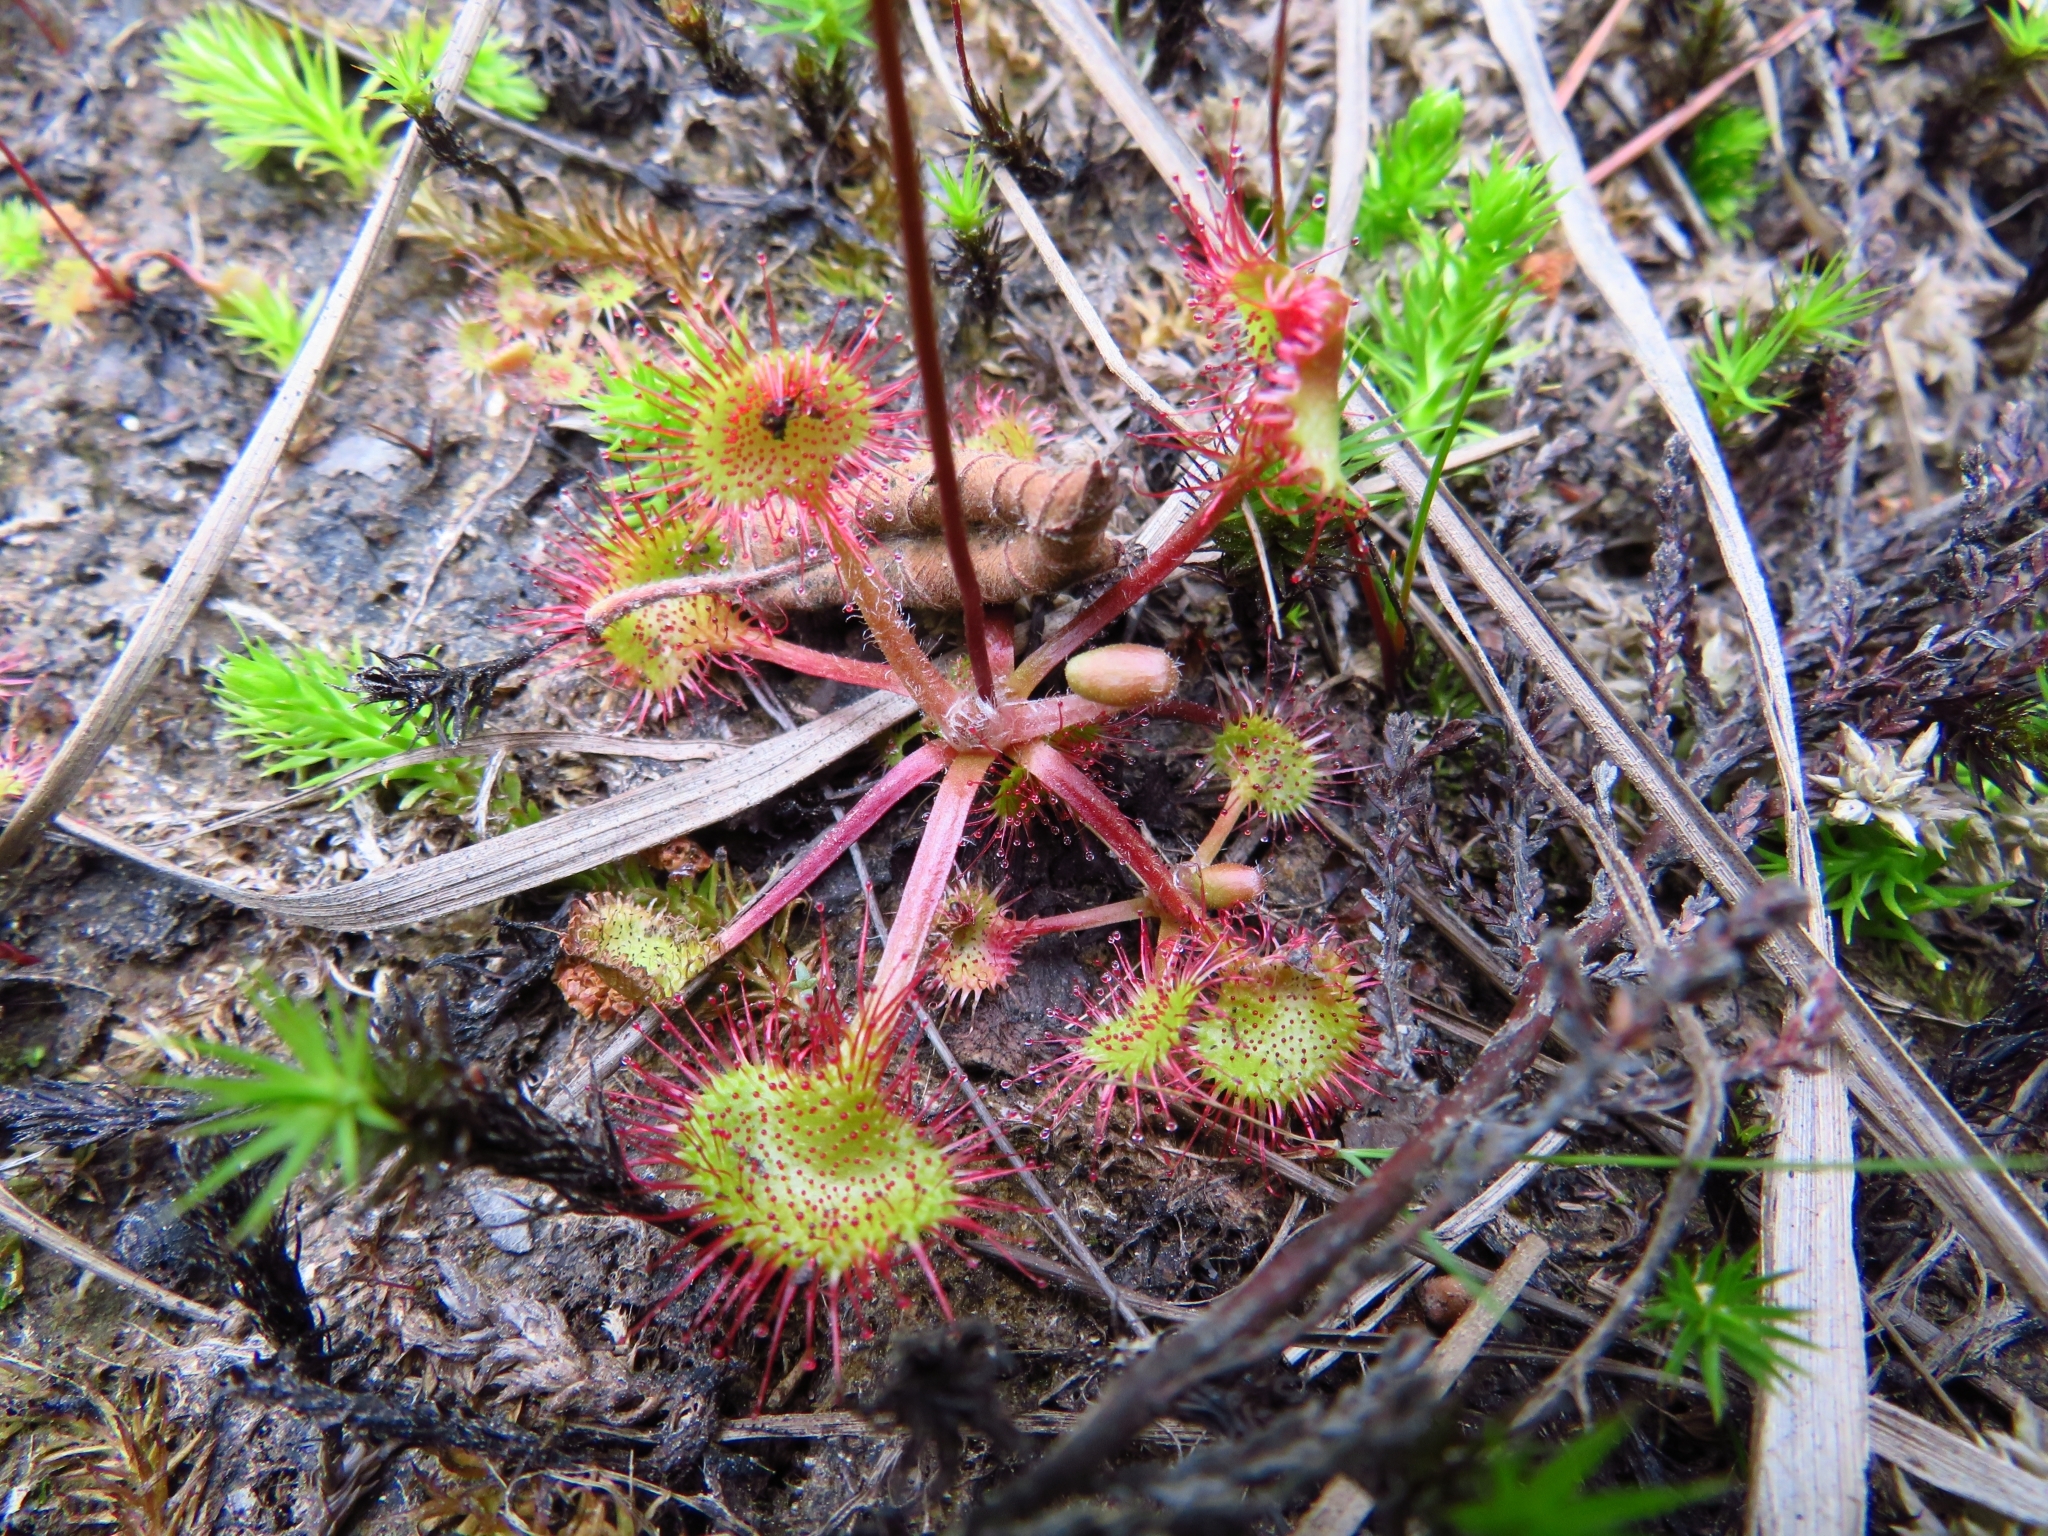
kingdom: Plantae
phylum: Tracheophyta
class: Magnoliopsida
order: Caryophyllales
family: Droseraceae
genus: Drosera
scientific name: Drosera rotundifolia
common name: Round-leaved sundew
